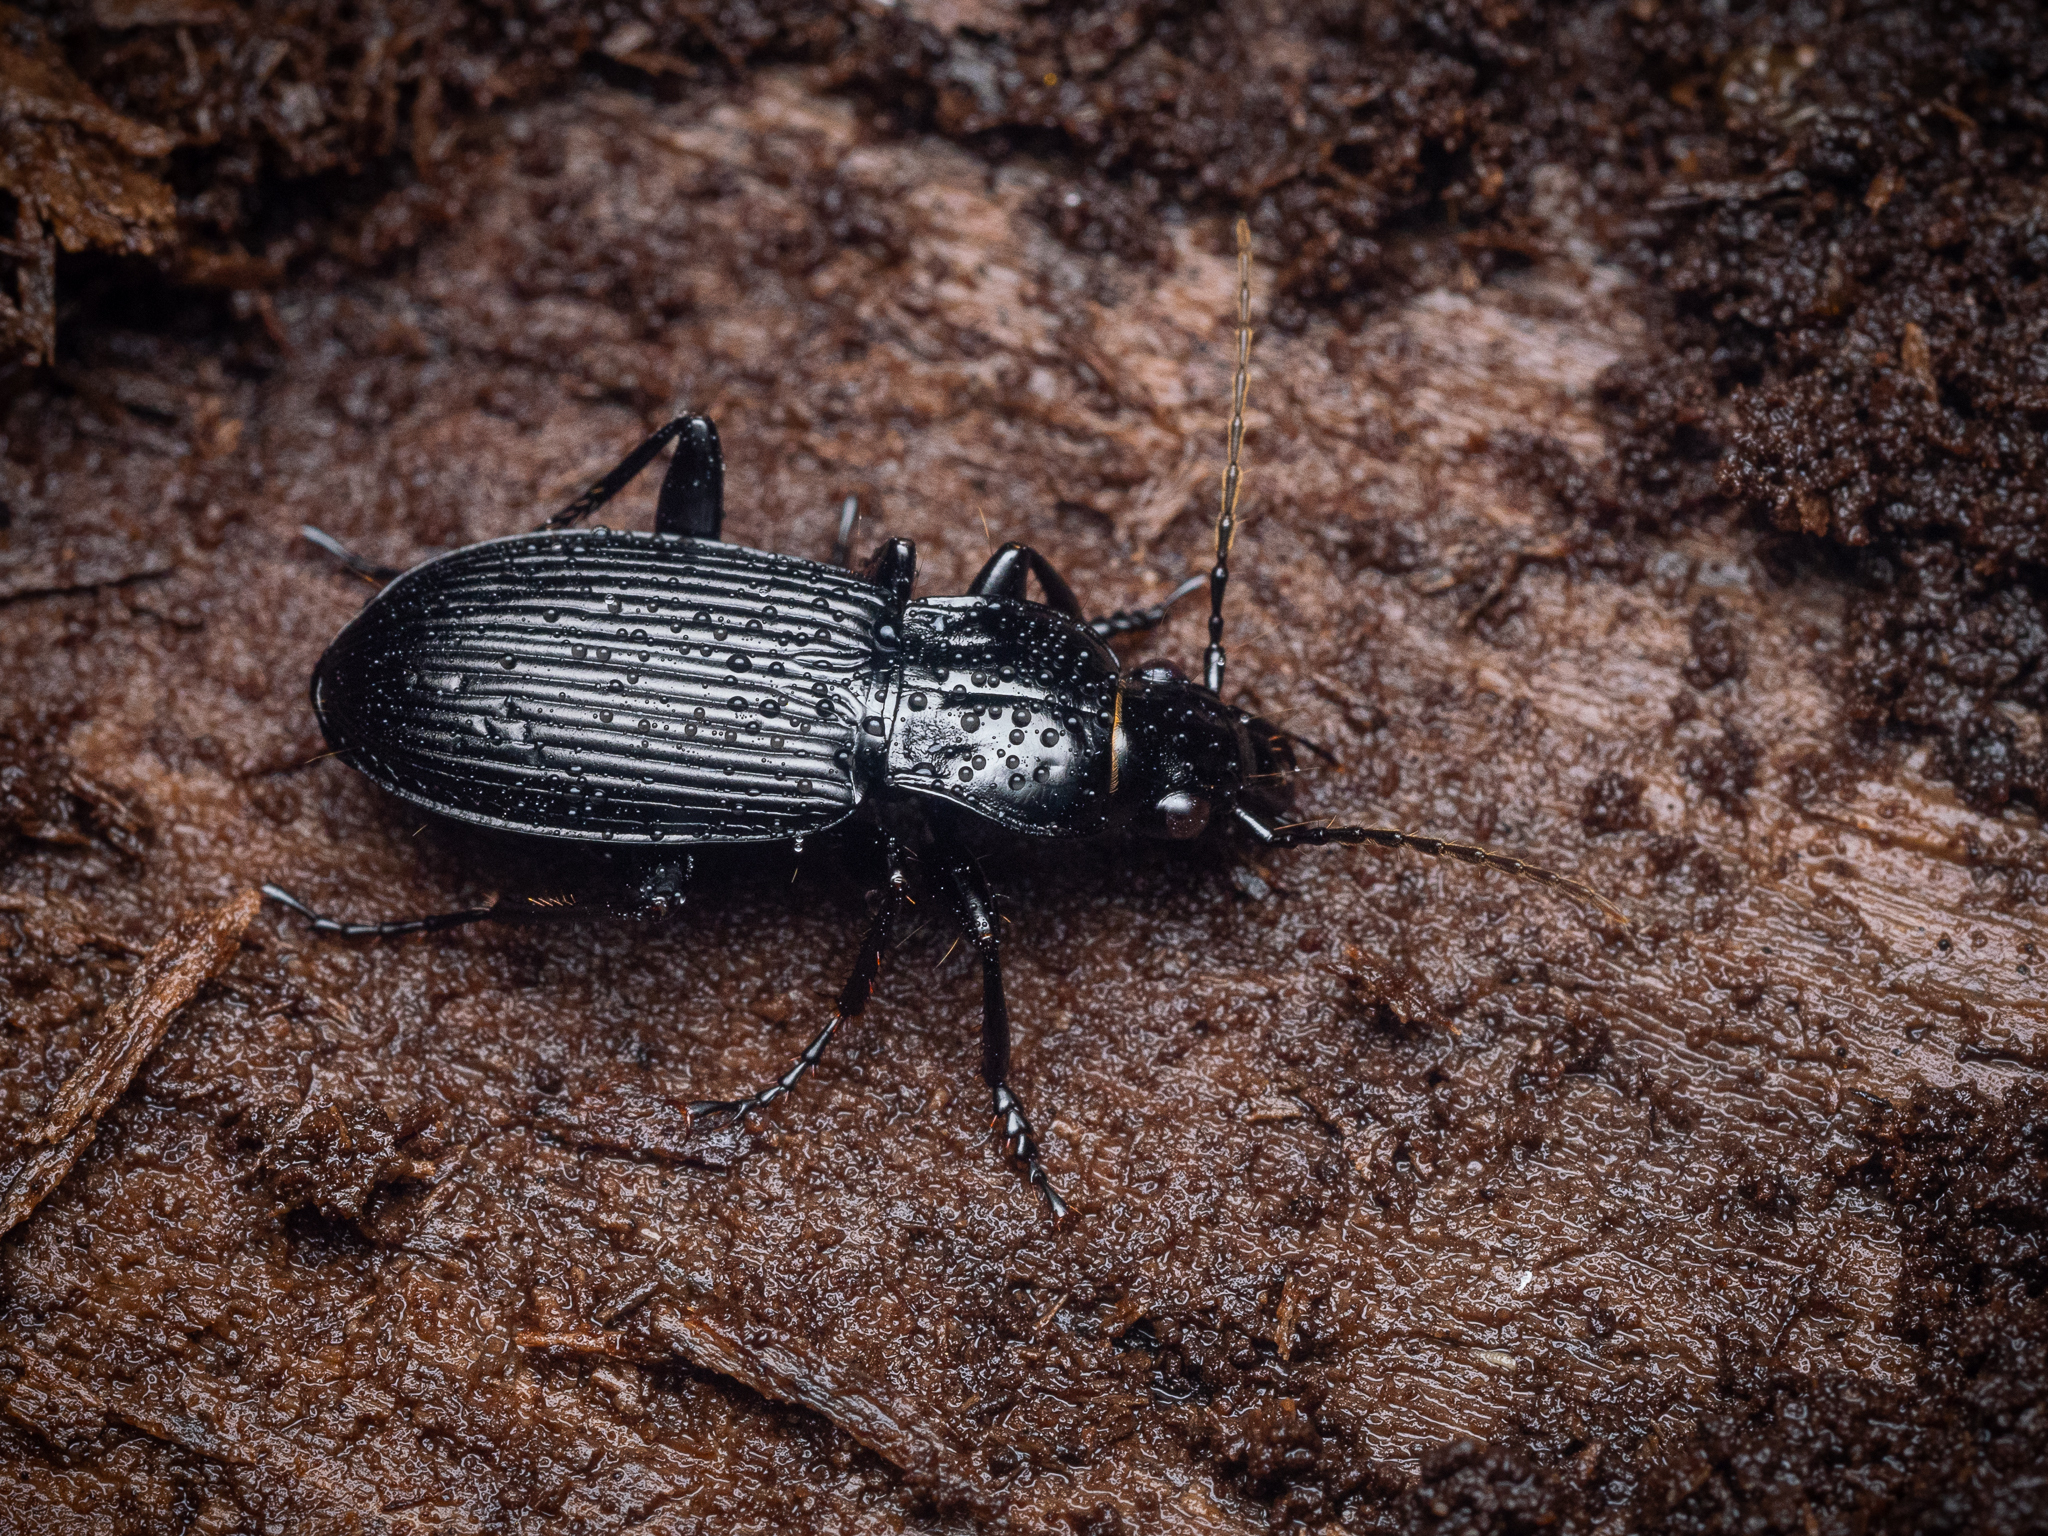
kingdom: Animalia
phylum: Arthropoda
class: Insecta
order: Coleoptera
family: Carabidae
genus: Pterostichus
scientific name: Pterostichus niger
